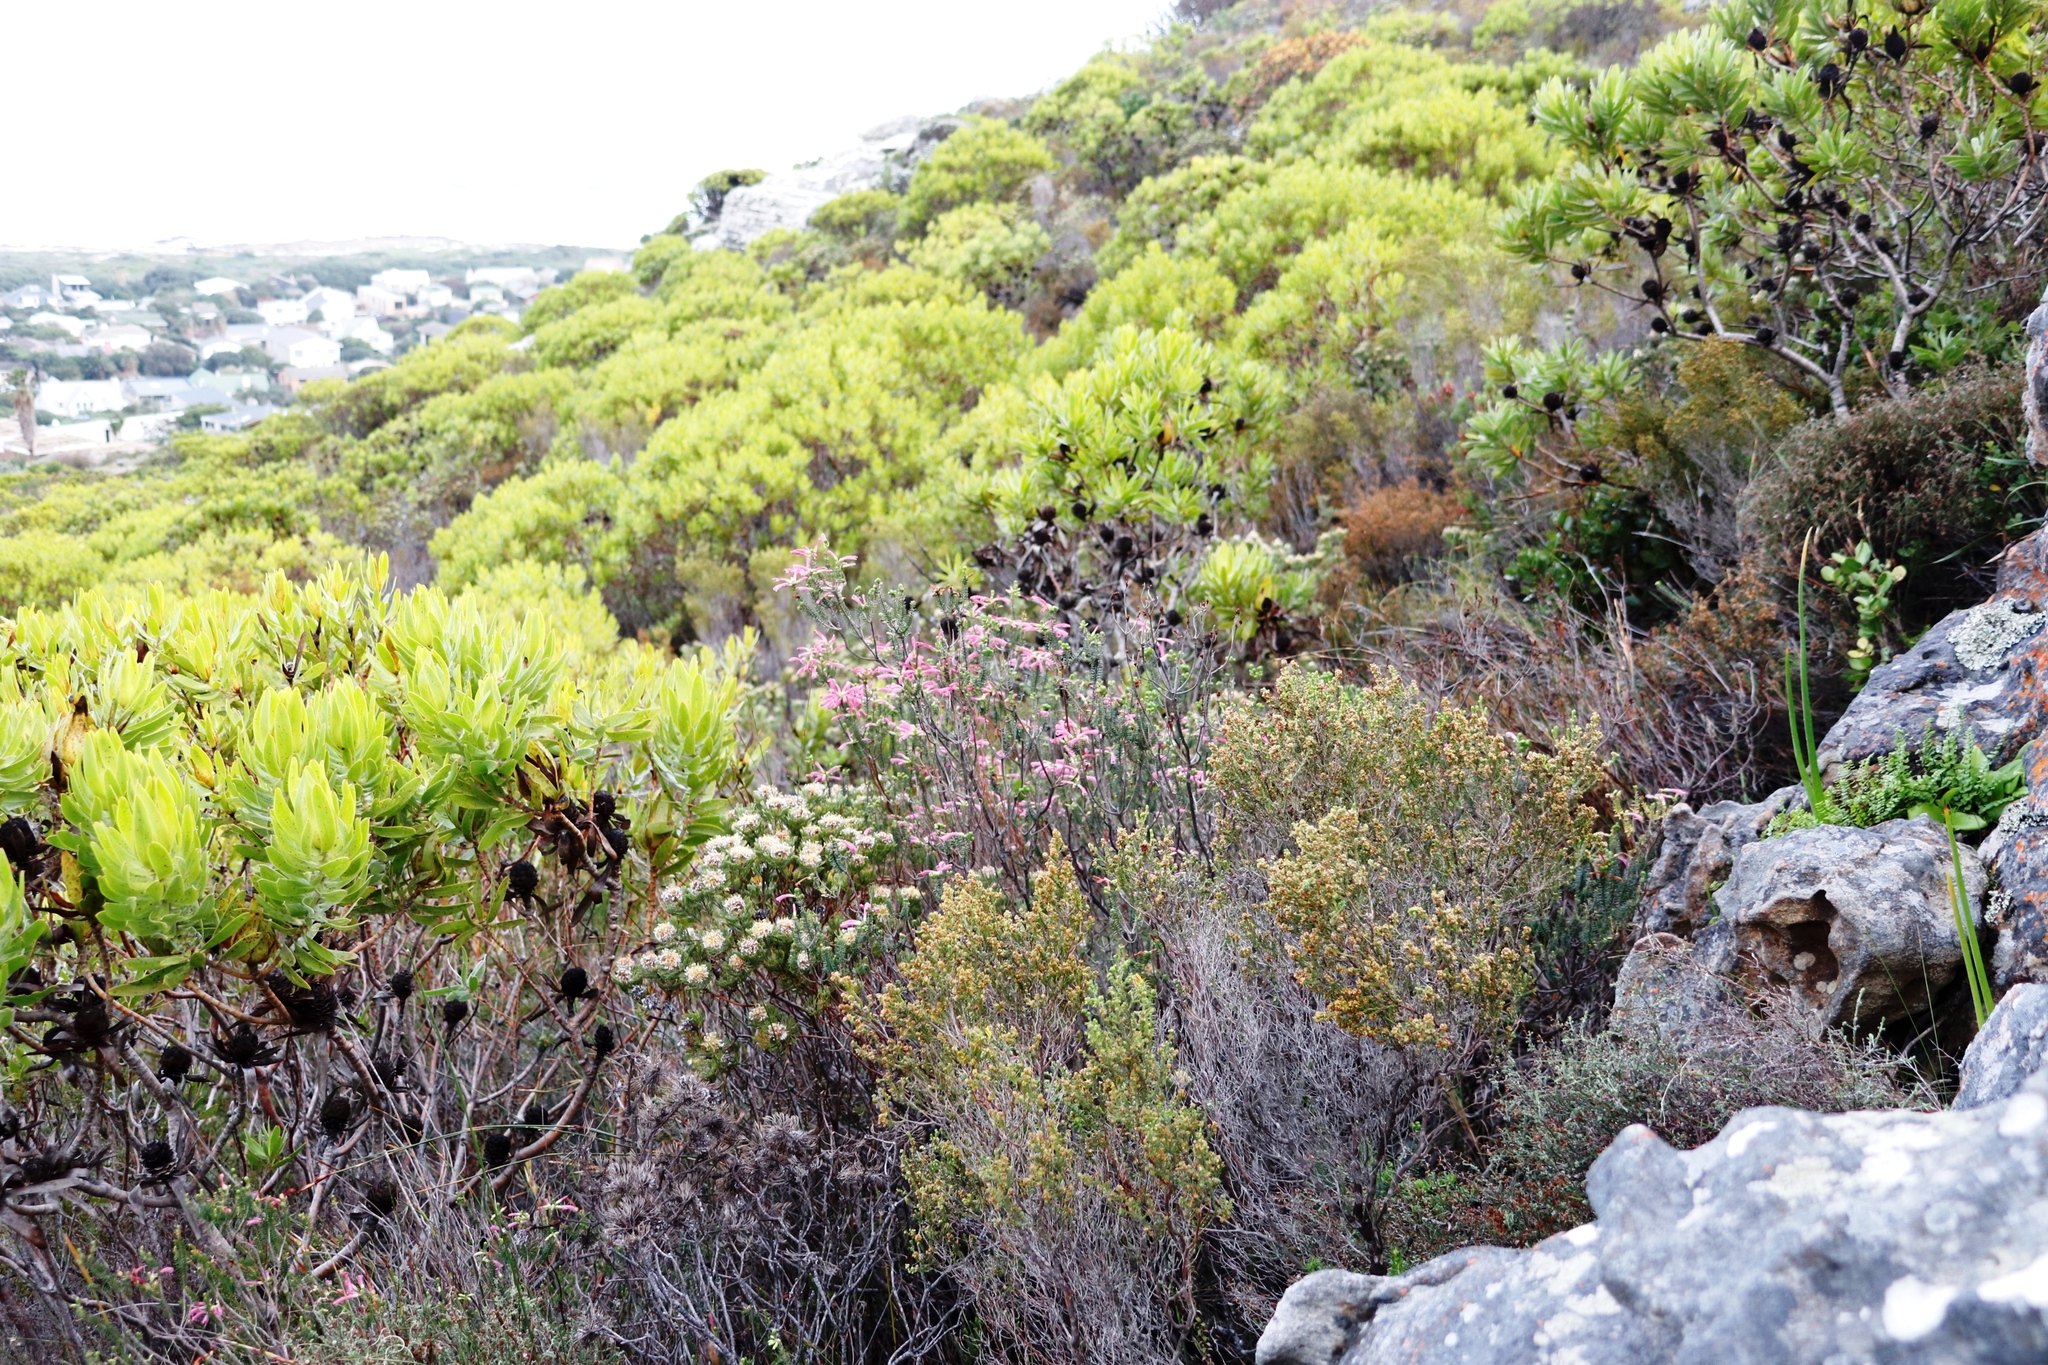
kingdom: Plantae
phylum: Tracheophyta
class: Magnoliopsida
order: Ericales
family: Ericaceae
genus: Erica
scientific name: Erica abietina
